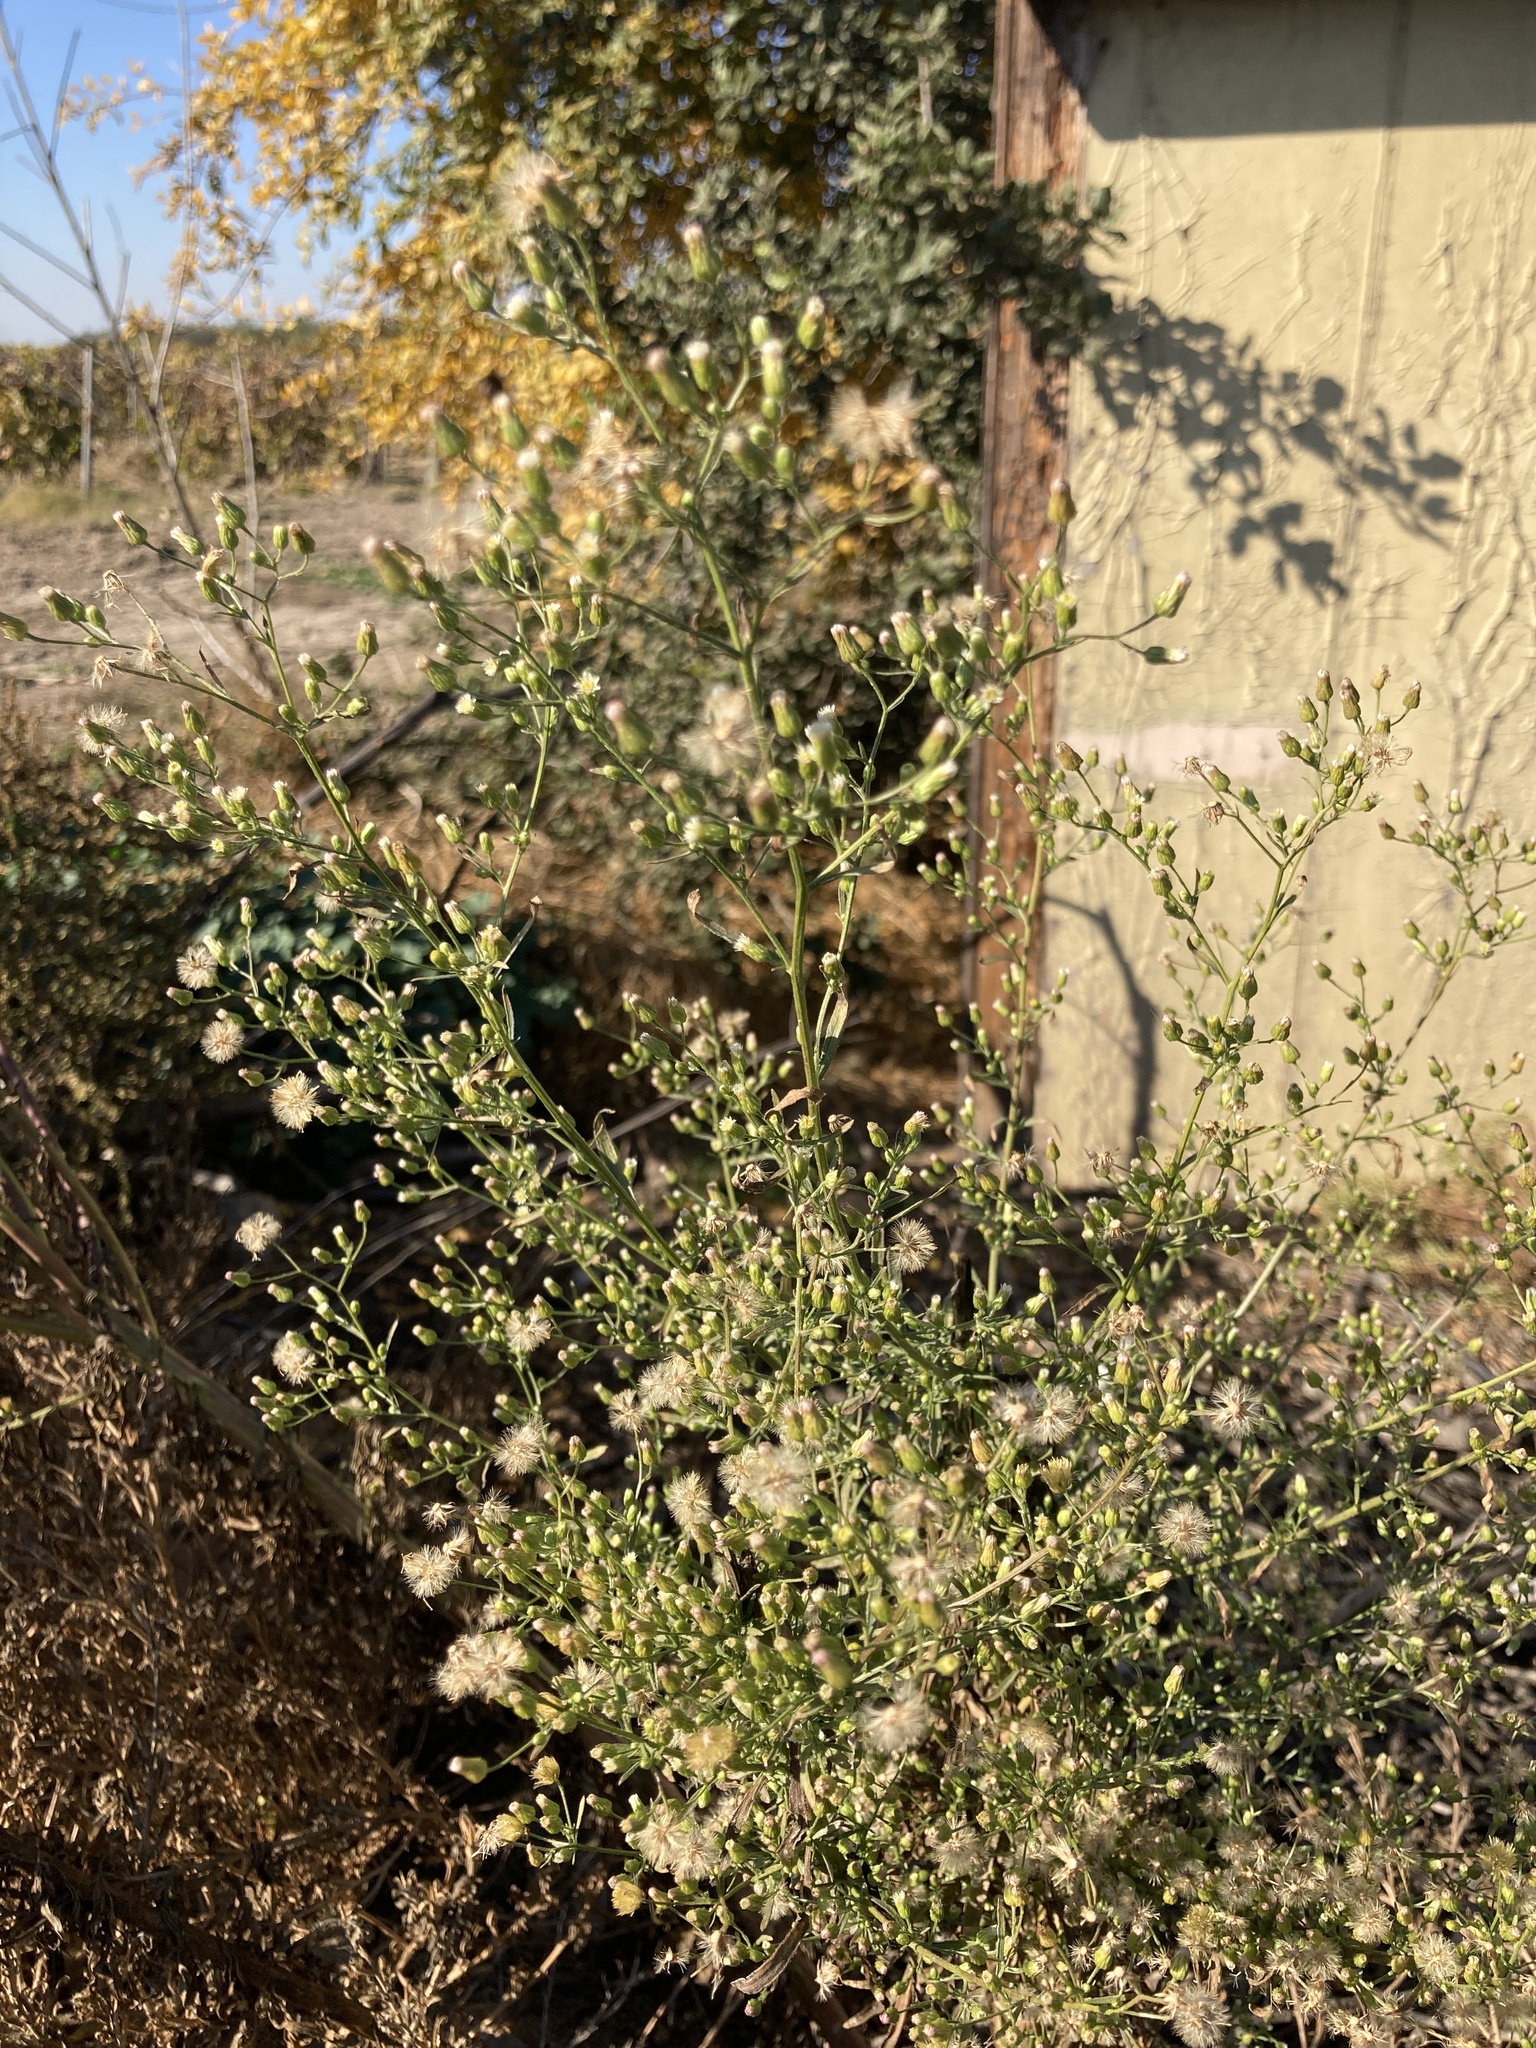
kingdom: Plantae
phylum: Tracheophyta
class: Magnoliopsida
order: Asterales
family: Asteraceae
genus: Erigeron
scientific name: Erigeron canadensis
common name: Canadian fleabane
